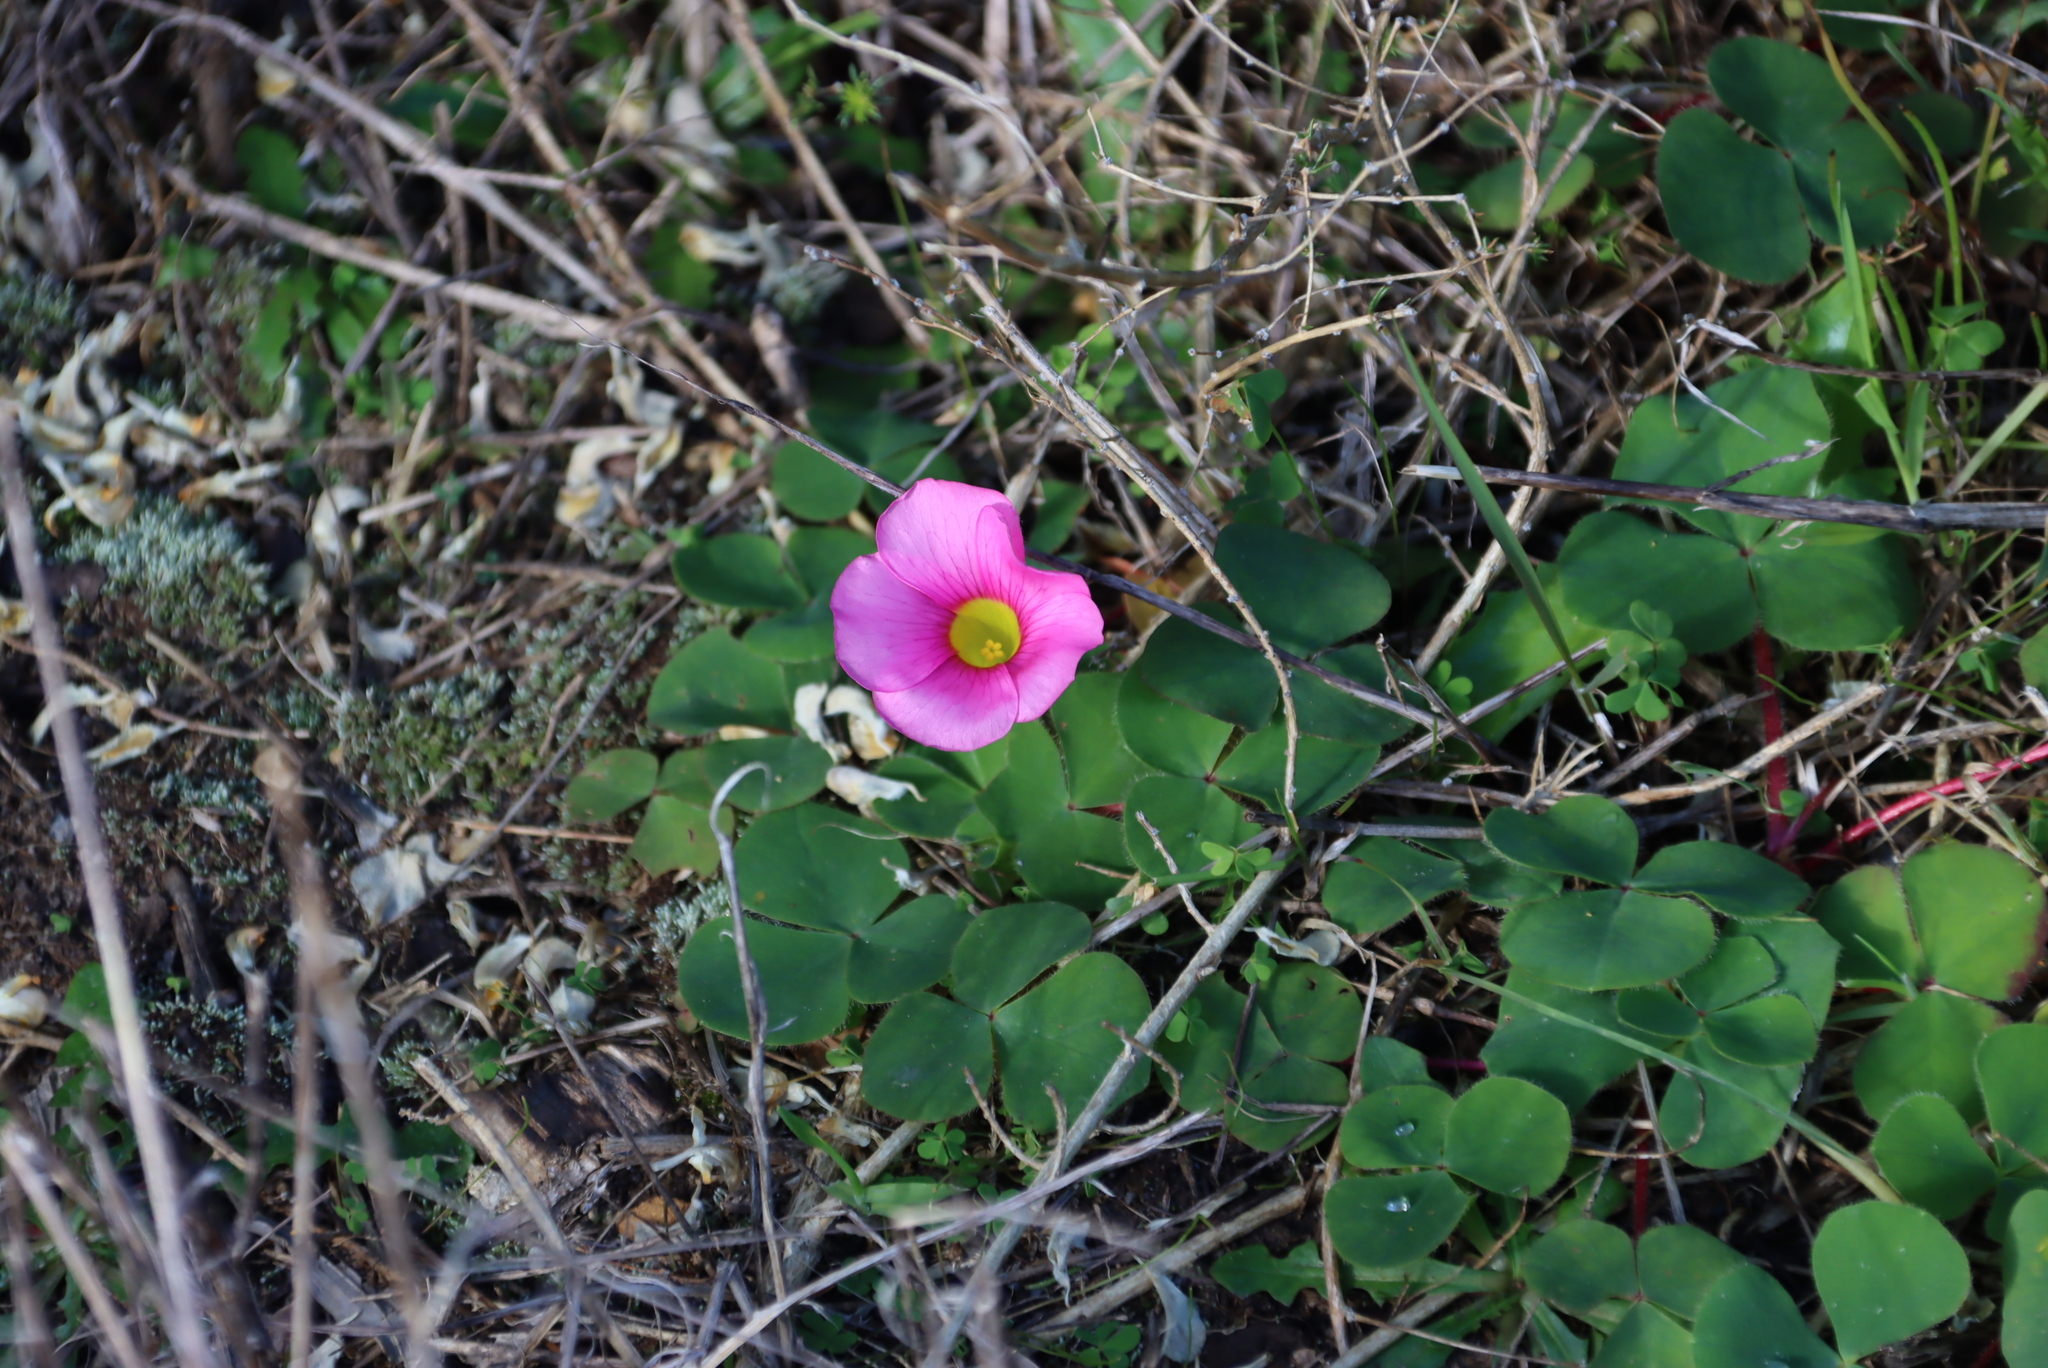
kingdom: Plantae
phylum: Tracheophyta
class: Magnoliopsida
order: Oxalidales
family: Oxalidaceae
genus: Oxalis
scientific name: Oxalis purpurea
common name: Purple woodsorrel
